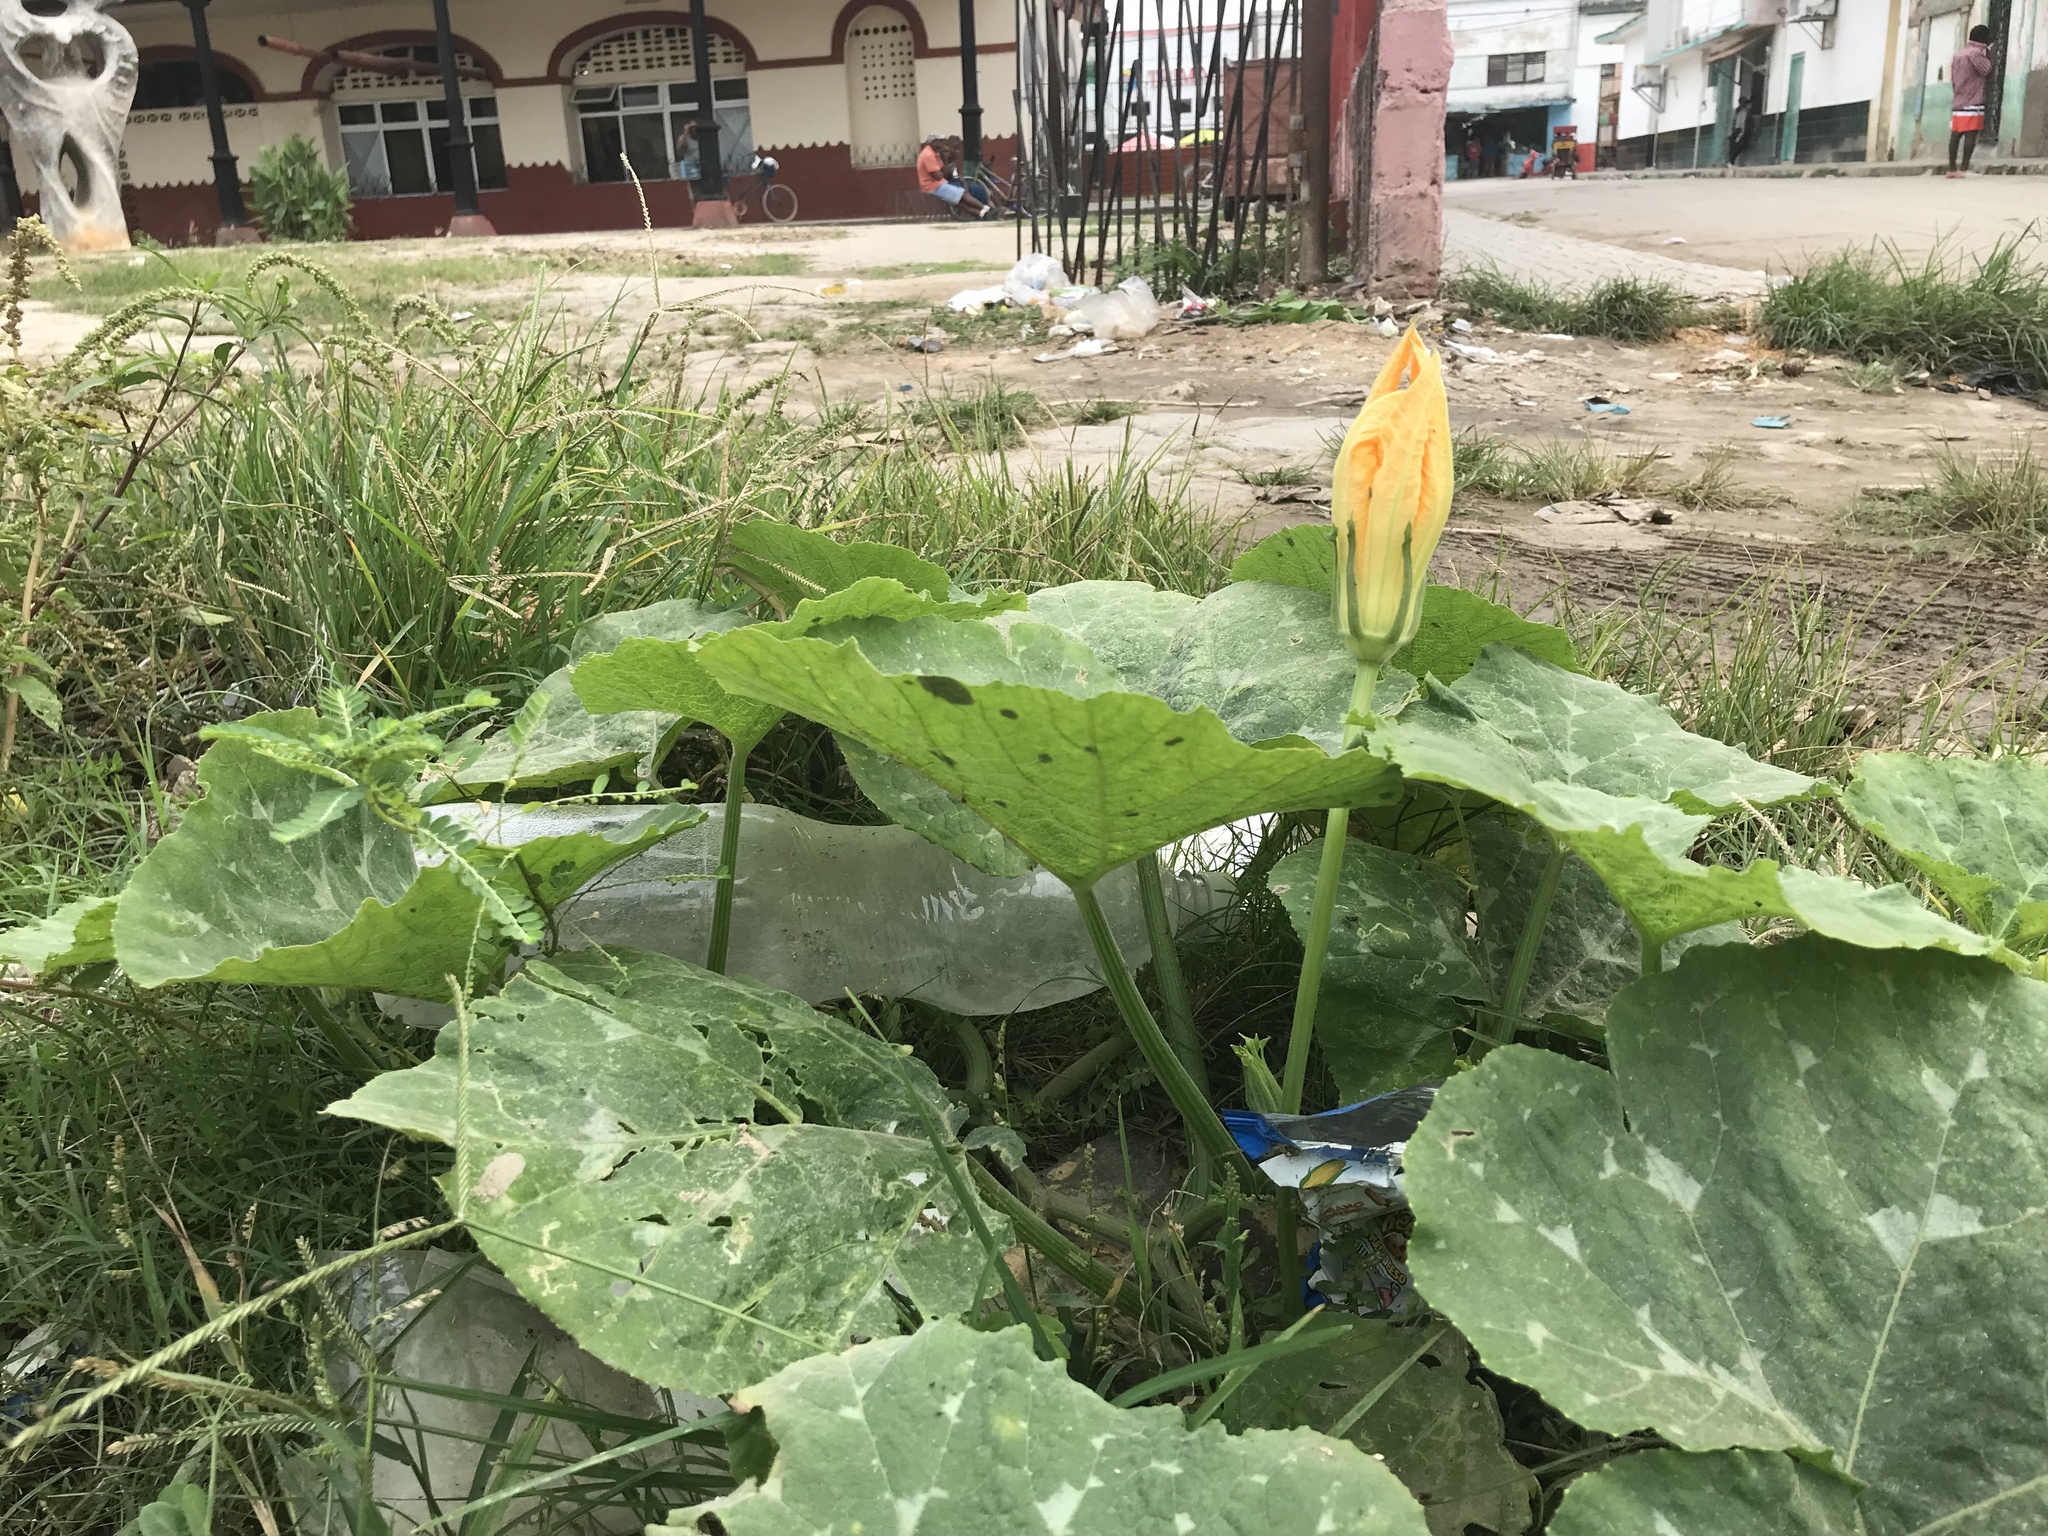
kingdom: Plantae
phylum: Tracheophyta
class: Magnoliopsida
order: Cucurbitales
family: Cucurbitaceae
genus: Cucurbita
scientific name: Cucurbita moschata
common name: Squash / pumpkin
